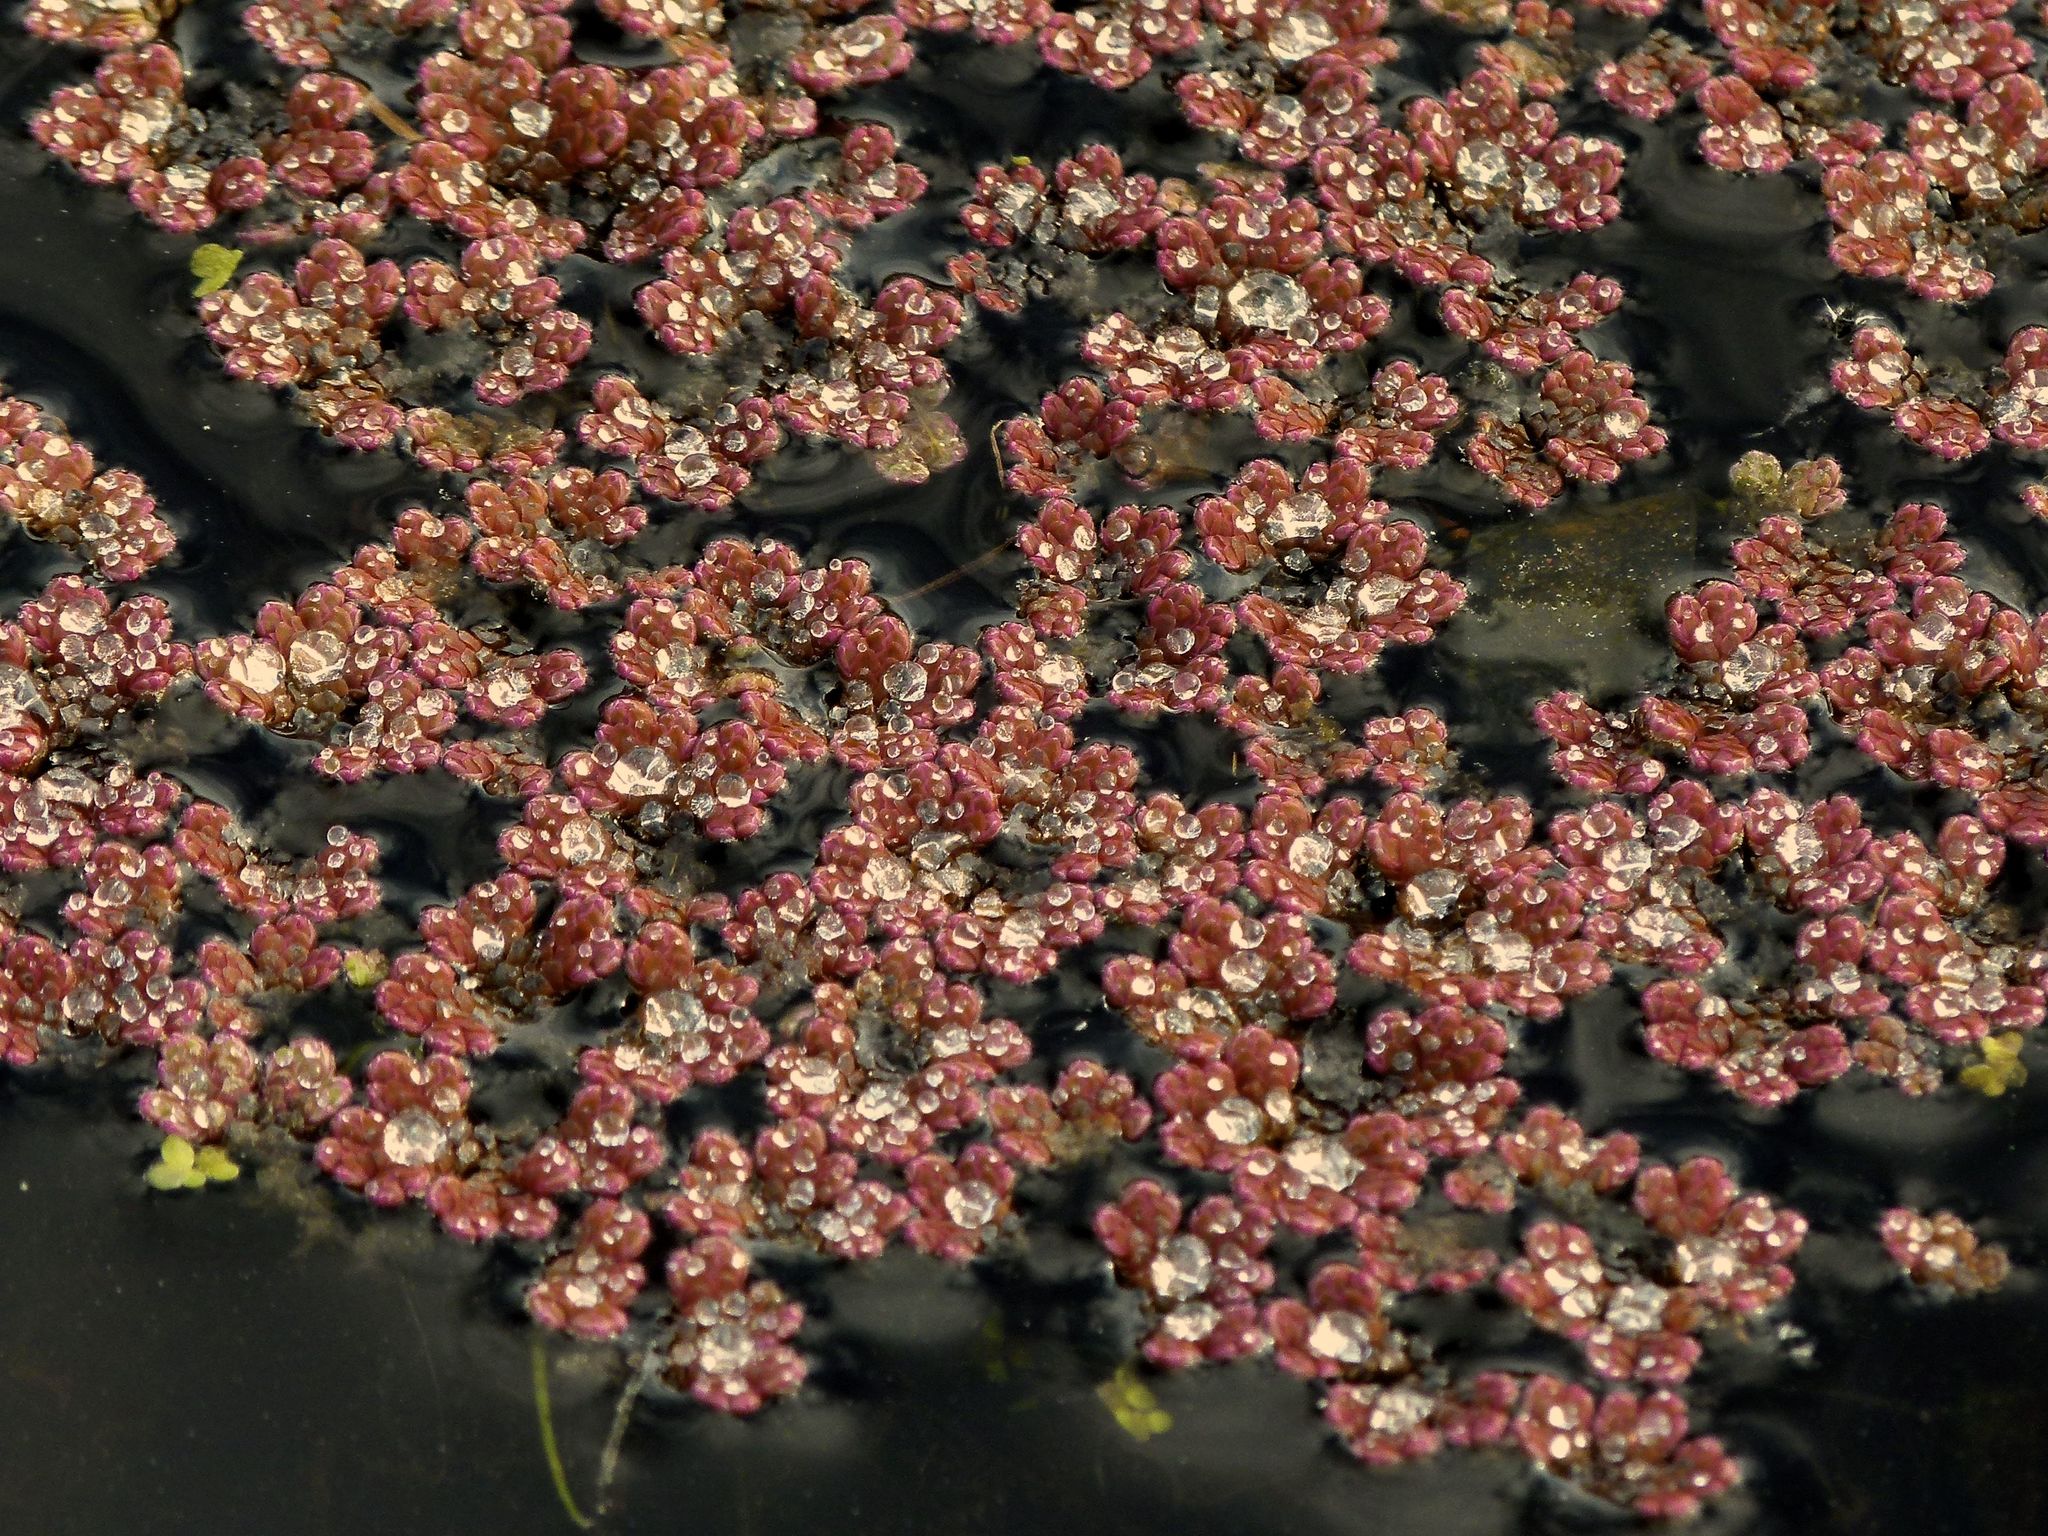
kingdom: Plantae
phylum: Tracheophyta
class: Polypodiopsida
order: Salviniales
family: Salviniaceae
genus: Azolla
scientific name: Azolla rubra
